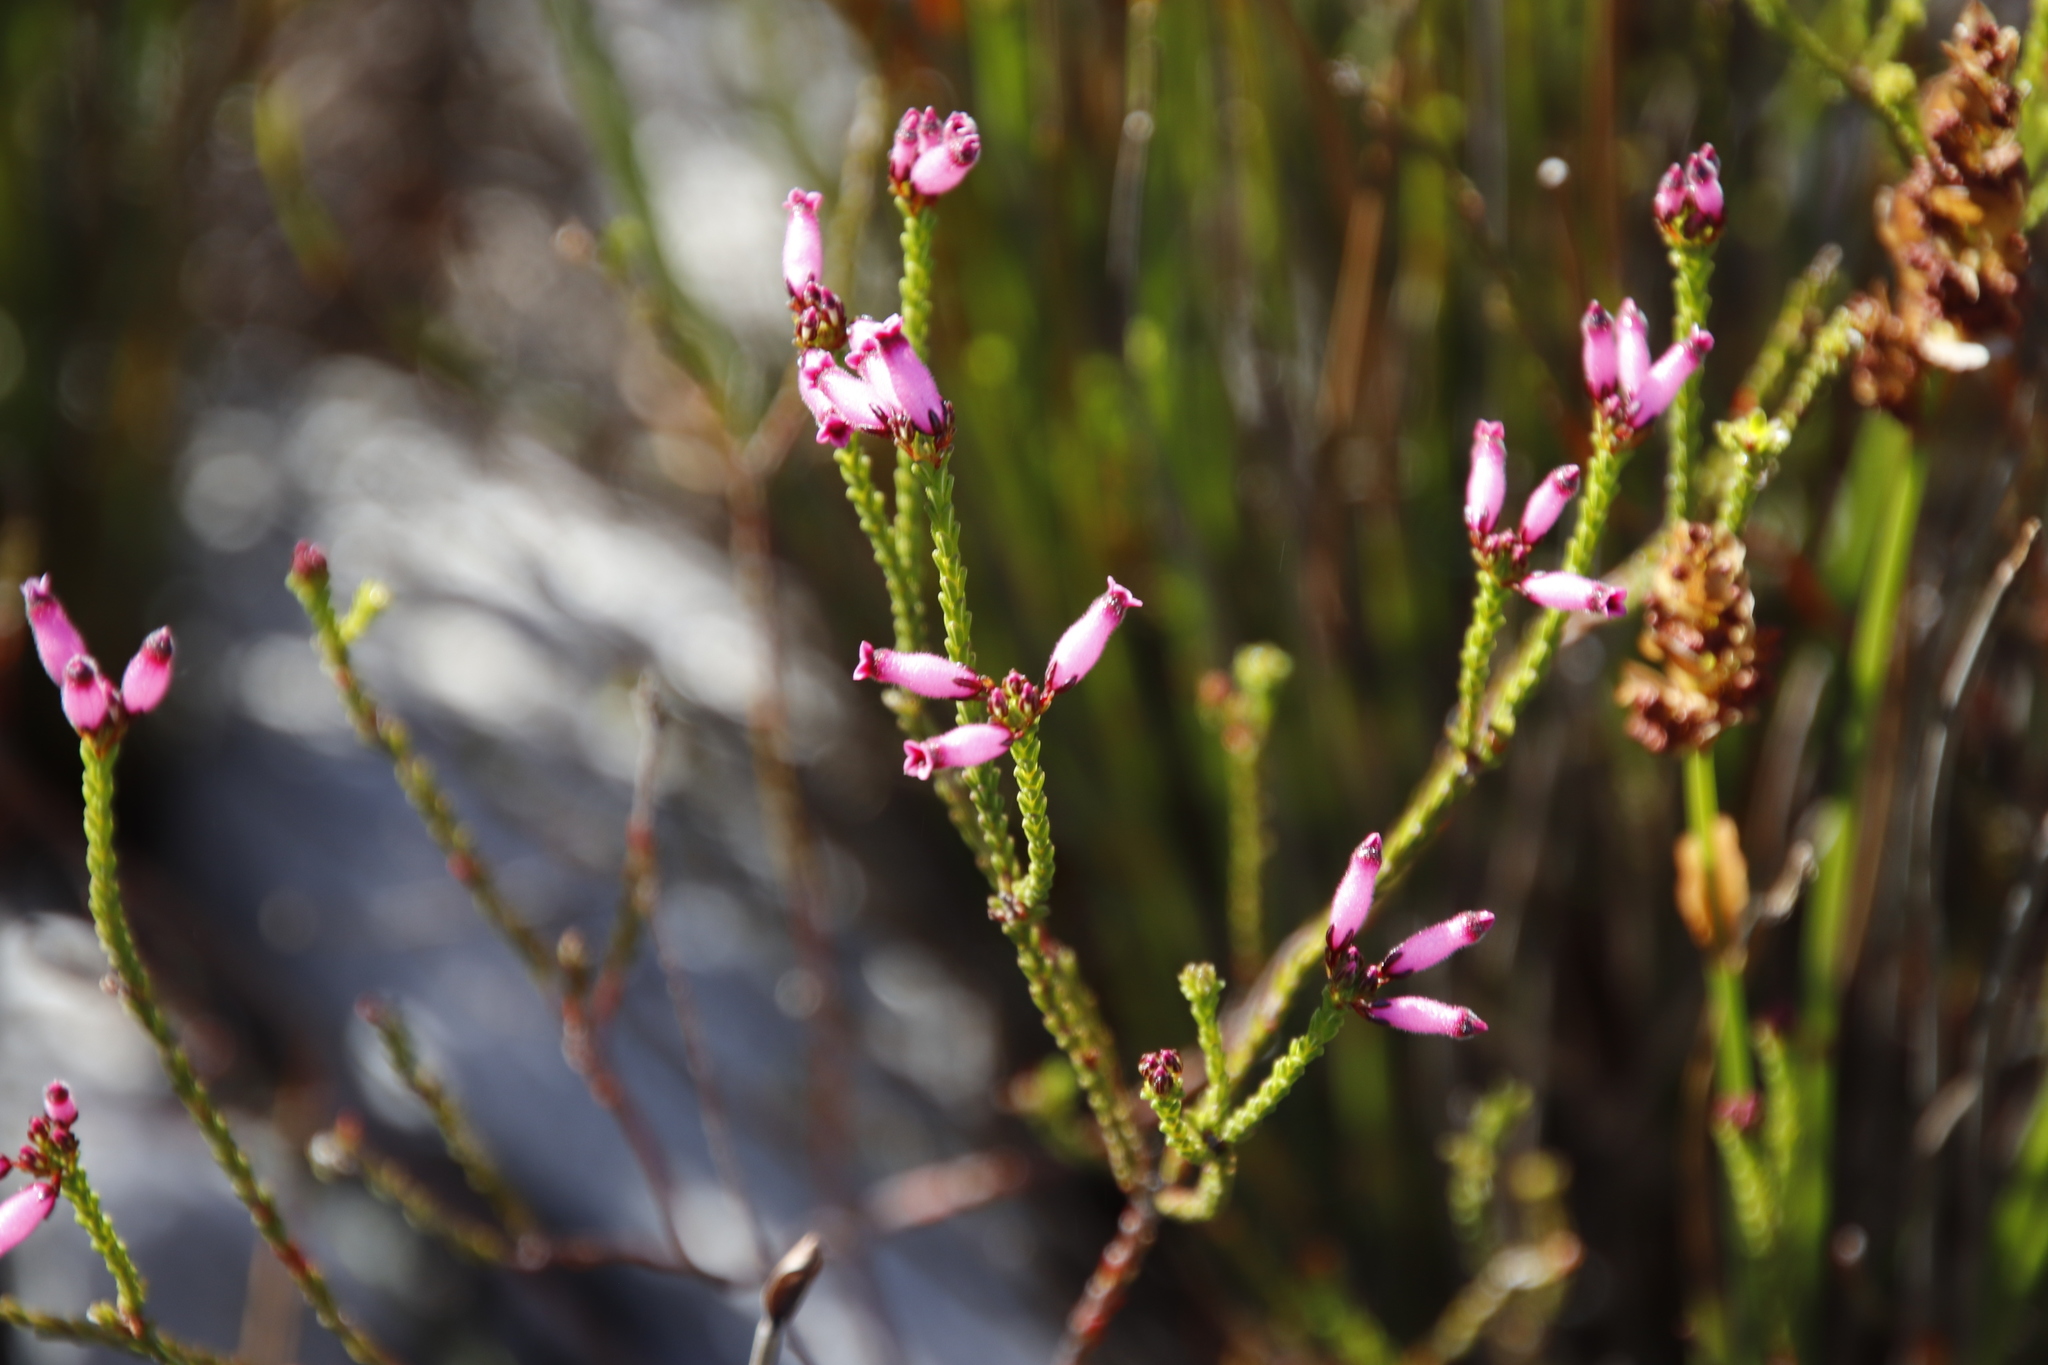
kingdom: Plantae
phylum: Tracheophyta
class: Magnoliopsida
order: Ericales
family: Ericaceae
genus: Erica
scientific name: Erica cristata
